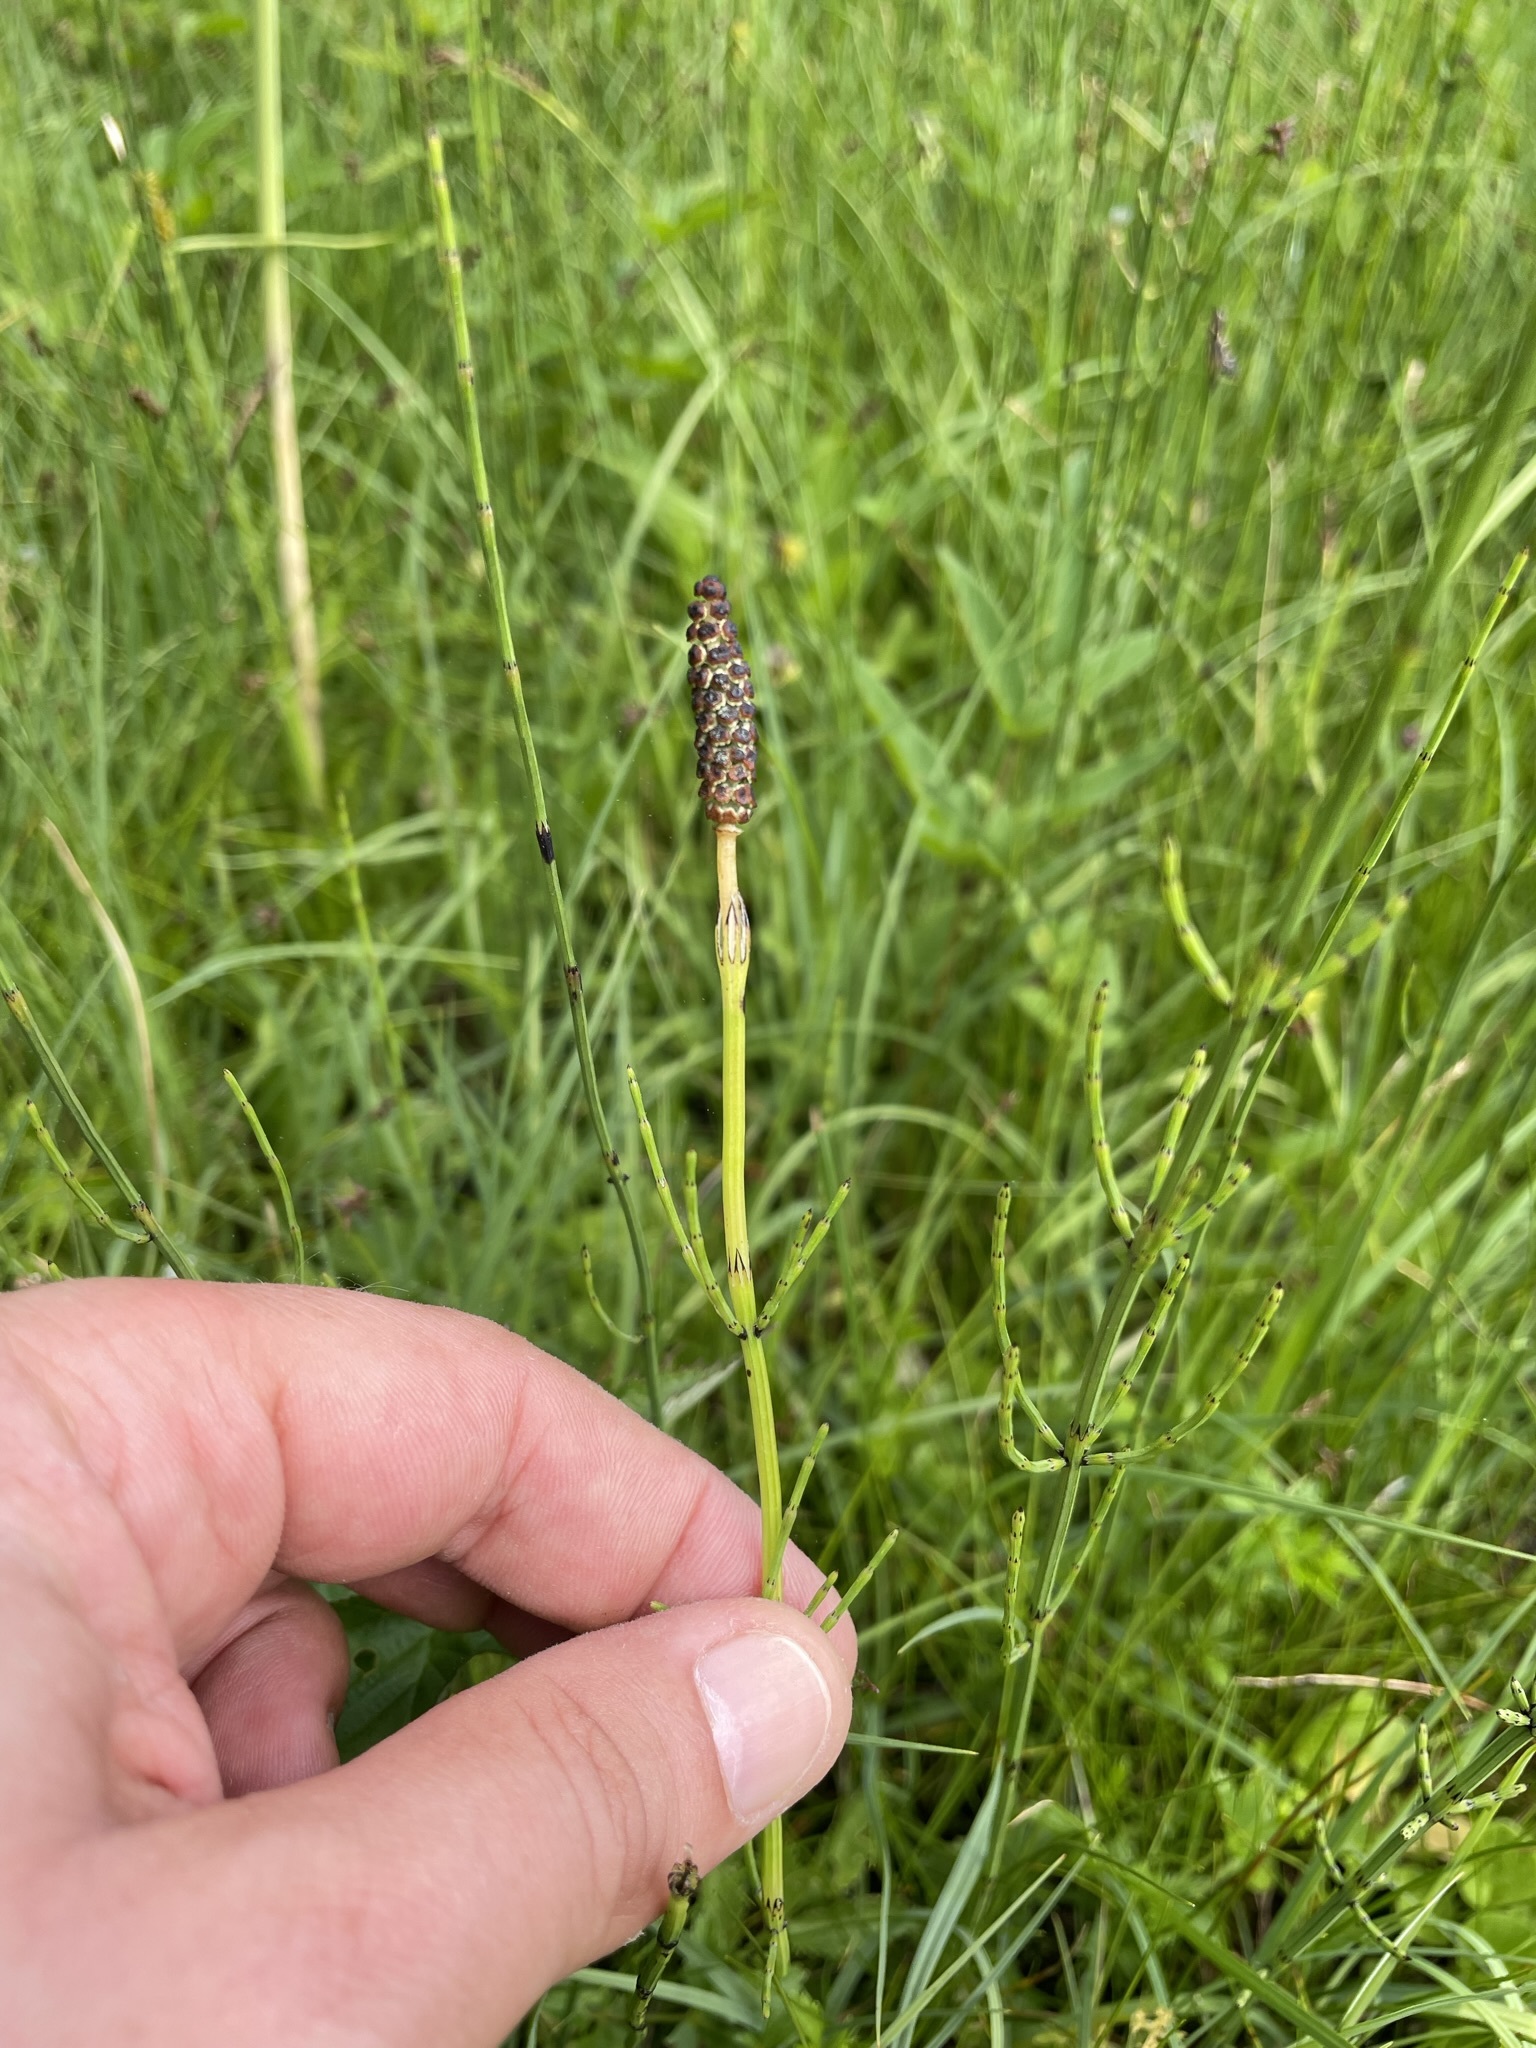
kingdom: Plantae
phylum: Tracheophyta
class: Polypodiopsida
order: Equisetales
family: Equisetaceae
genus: Equisetum
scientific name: Equisetum palustre
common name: Marsh horsetail
